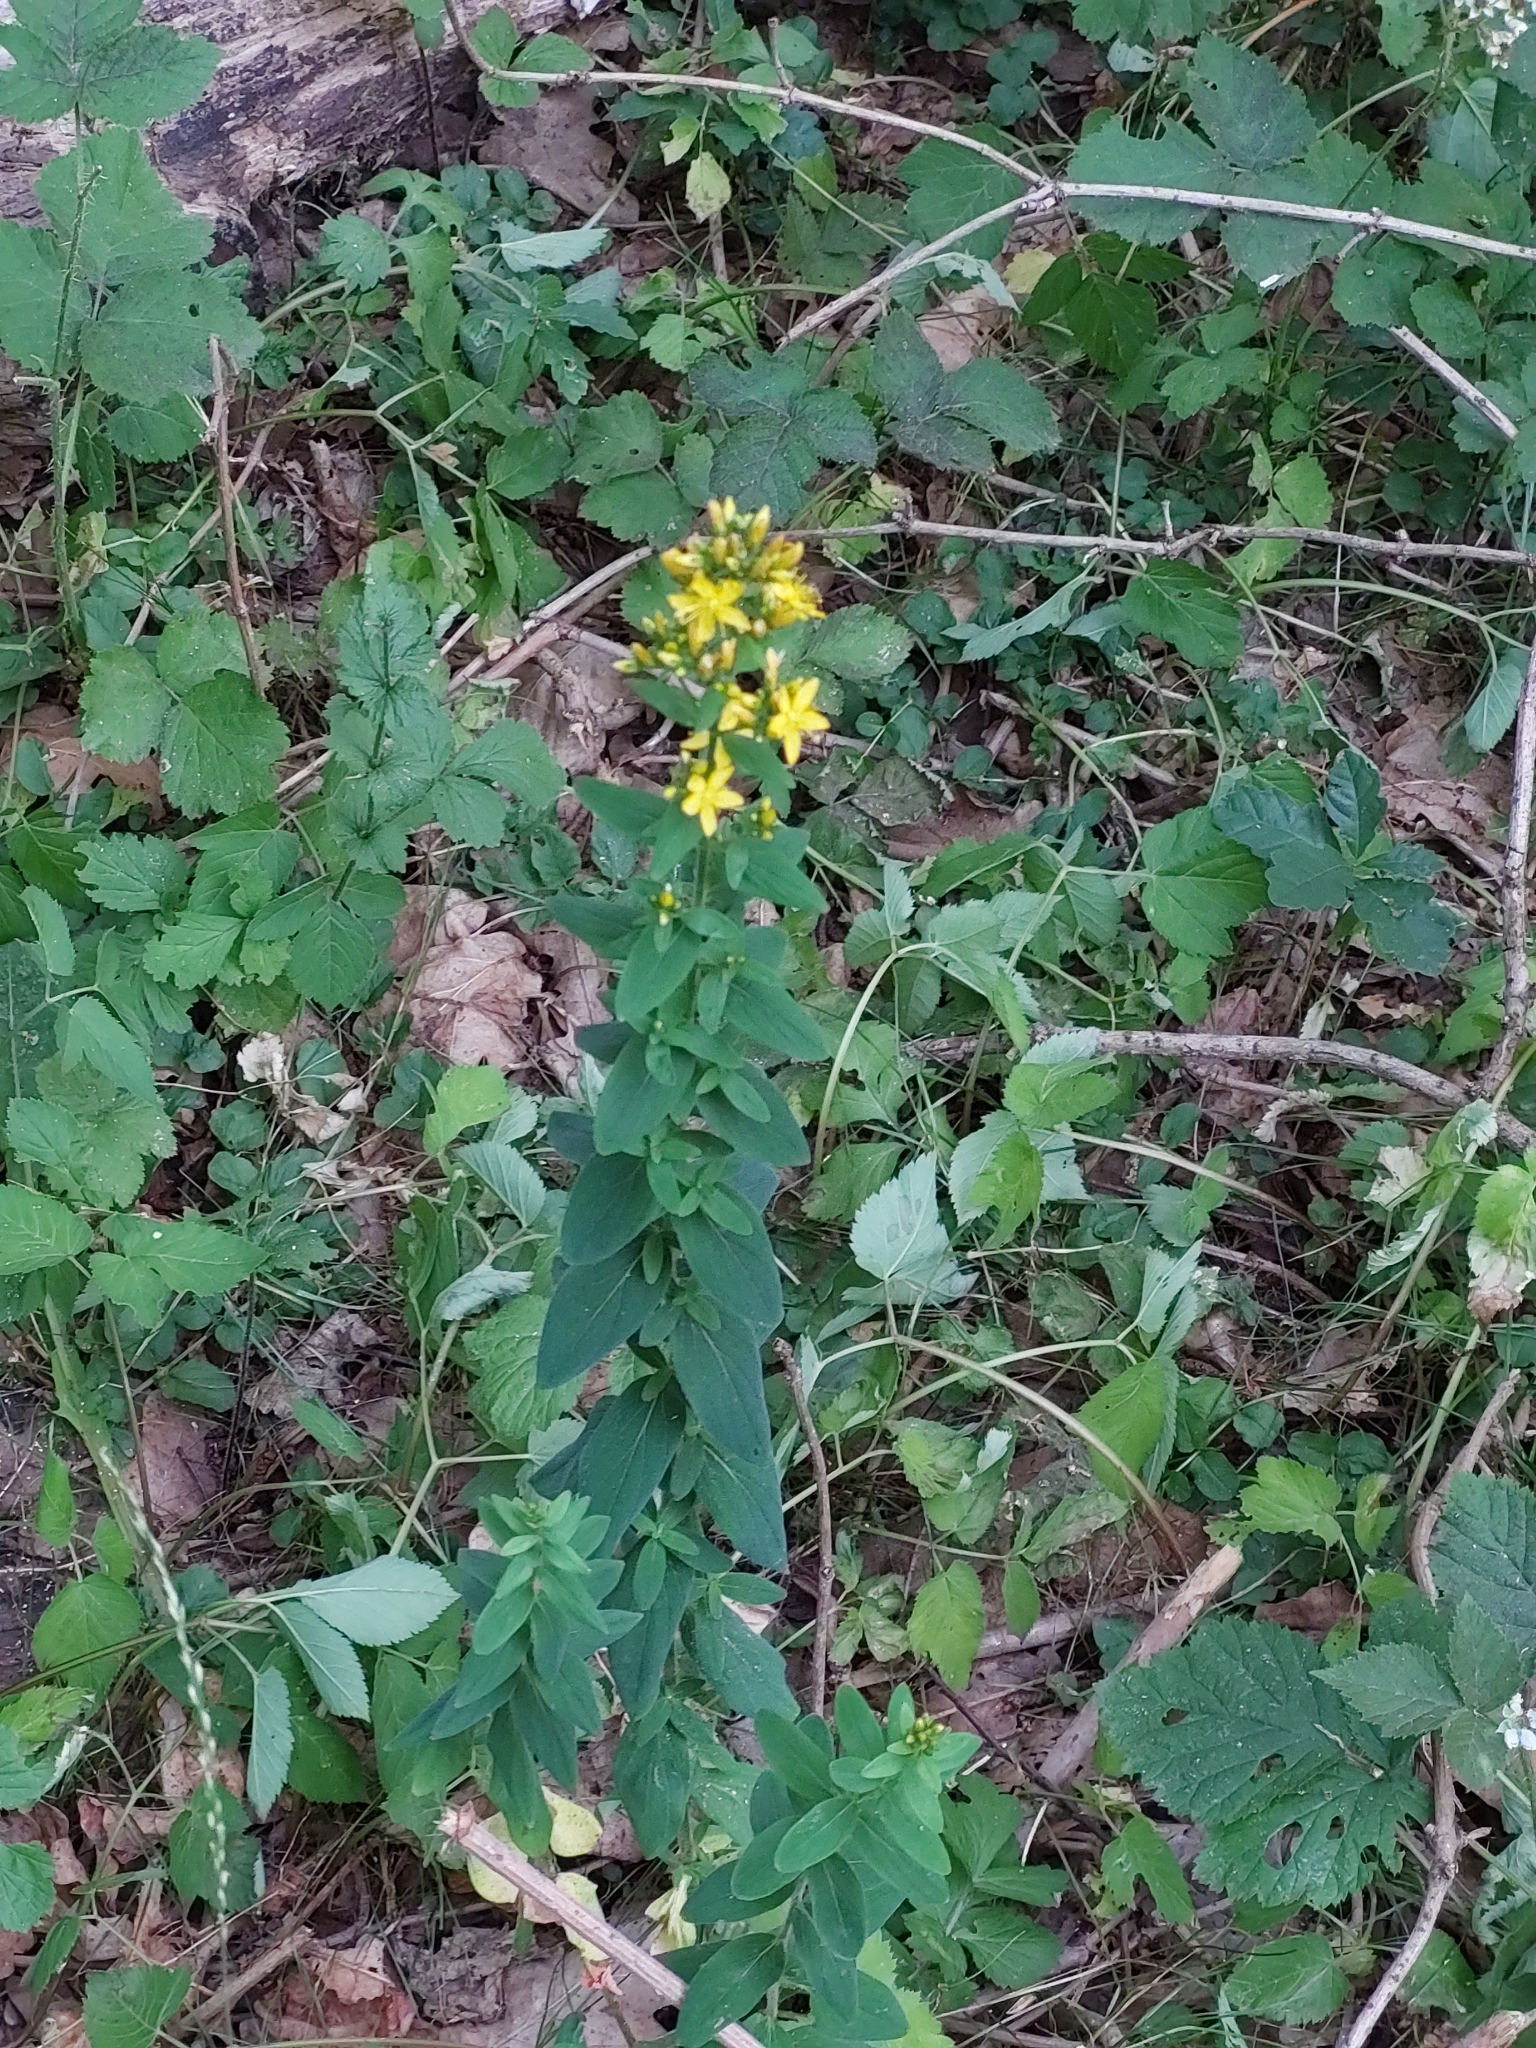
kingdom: Plantae
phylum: Tracheophyta
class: Magnoliopsida
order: Malpighiales
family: Hypericaceae
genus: Hypericum
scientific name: Hypericum hirsutum
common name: Hairy st. john's-wort
